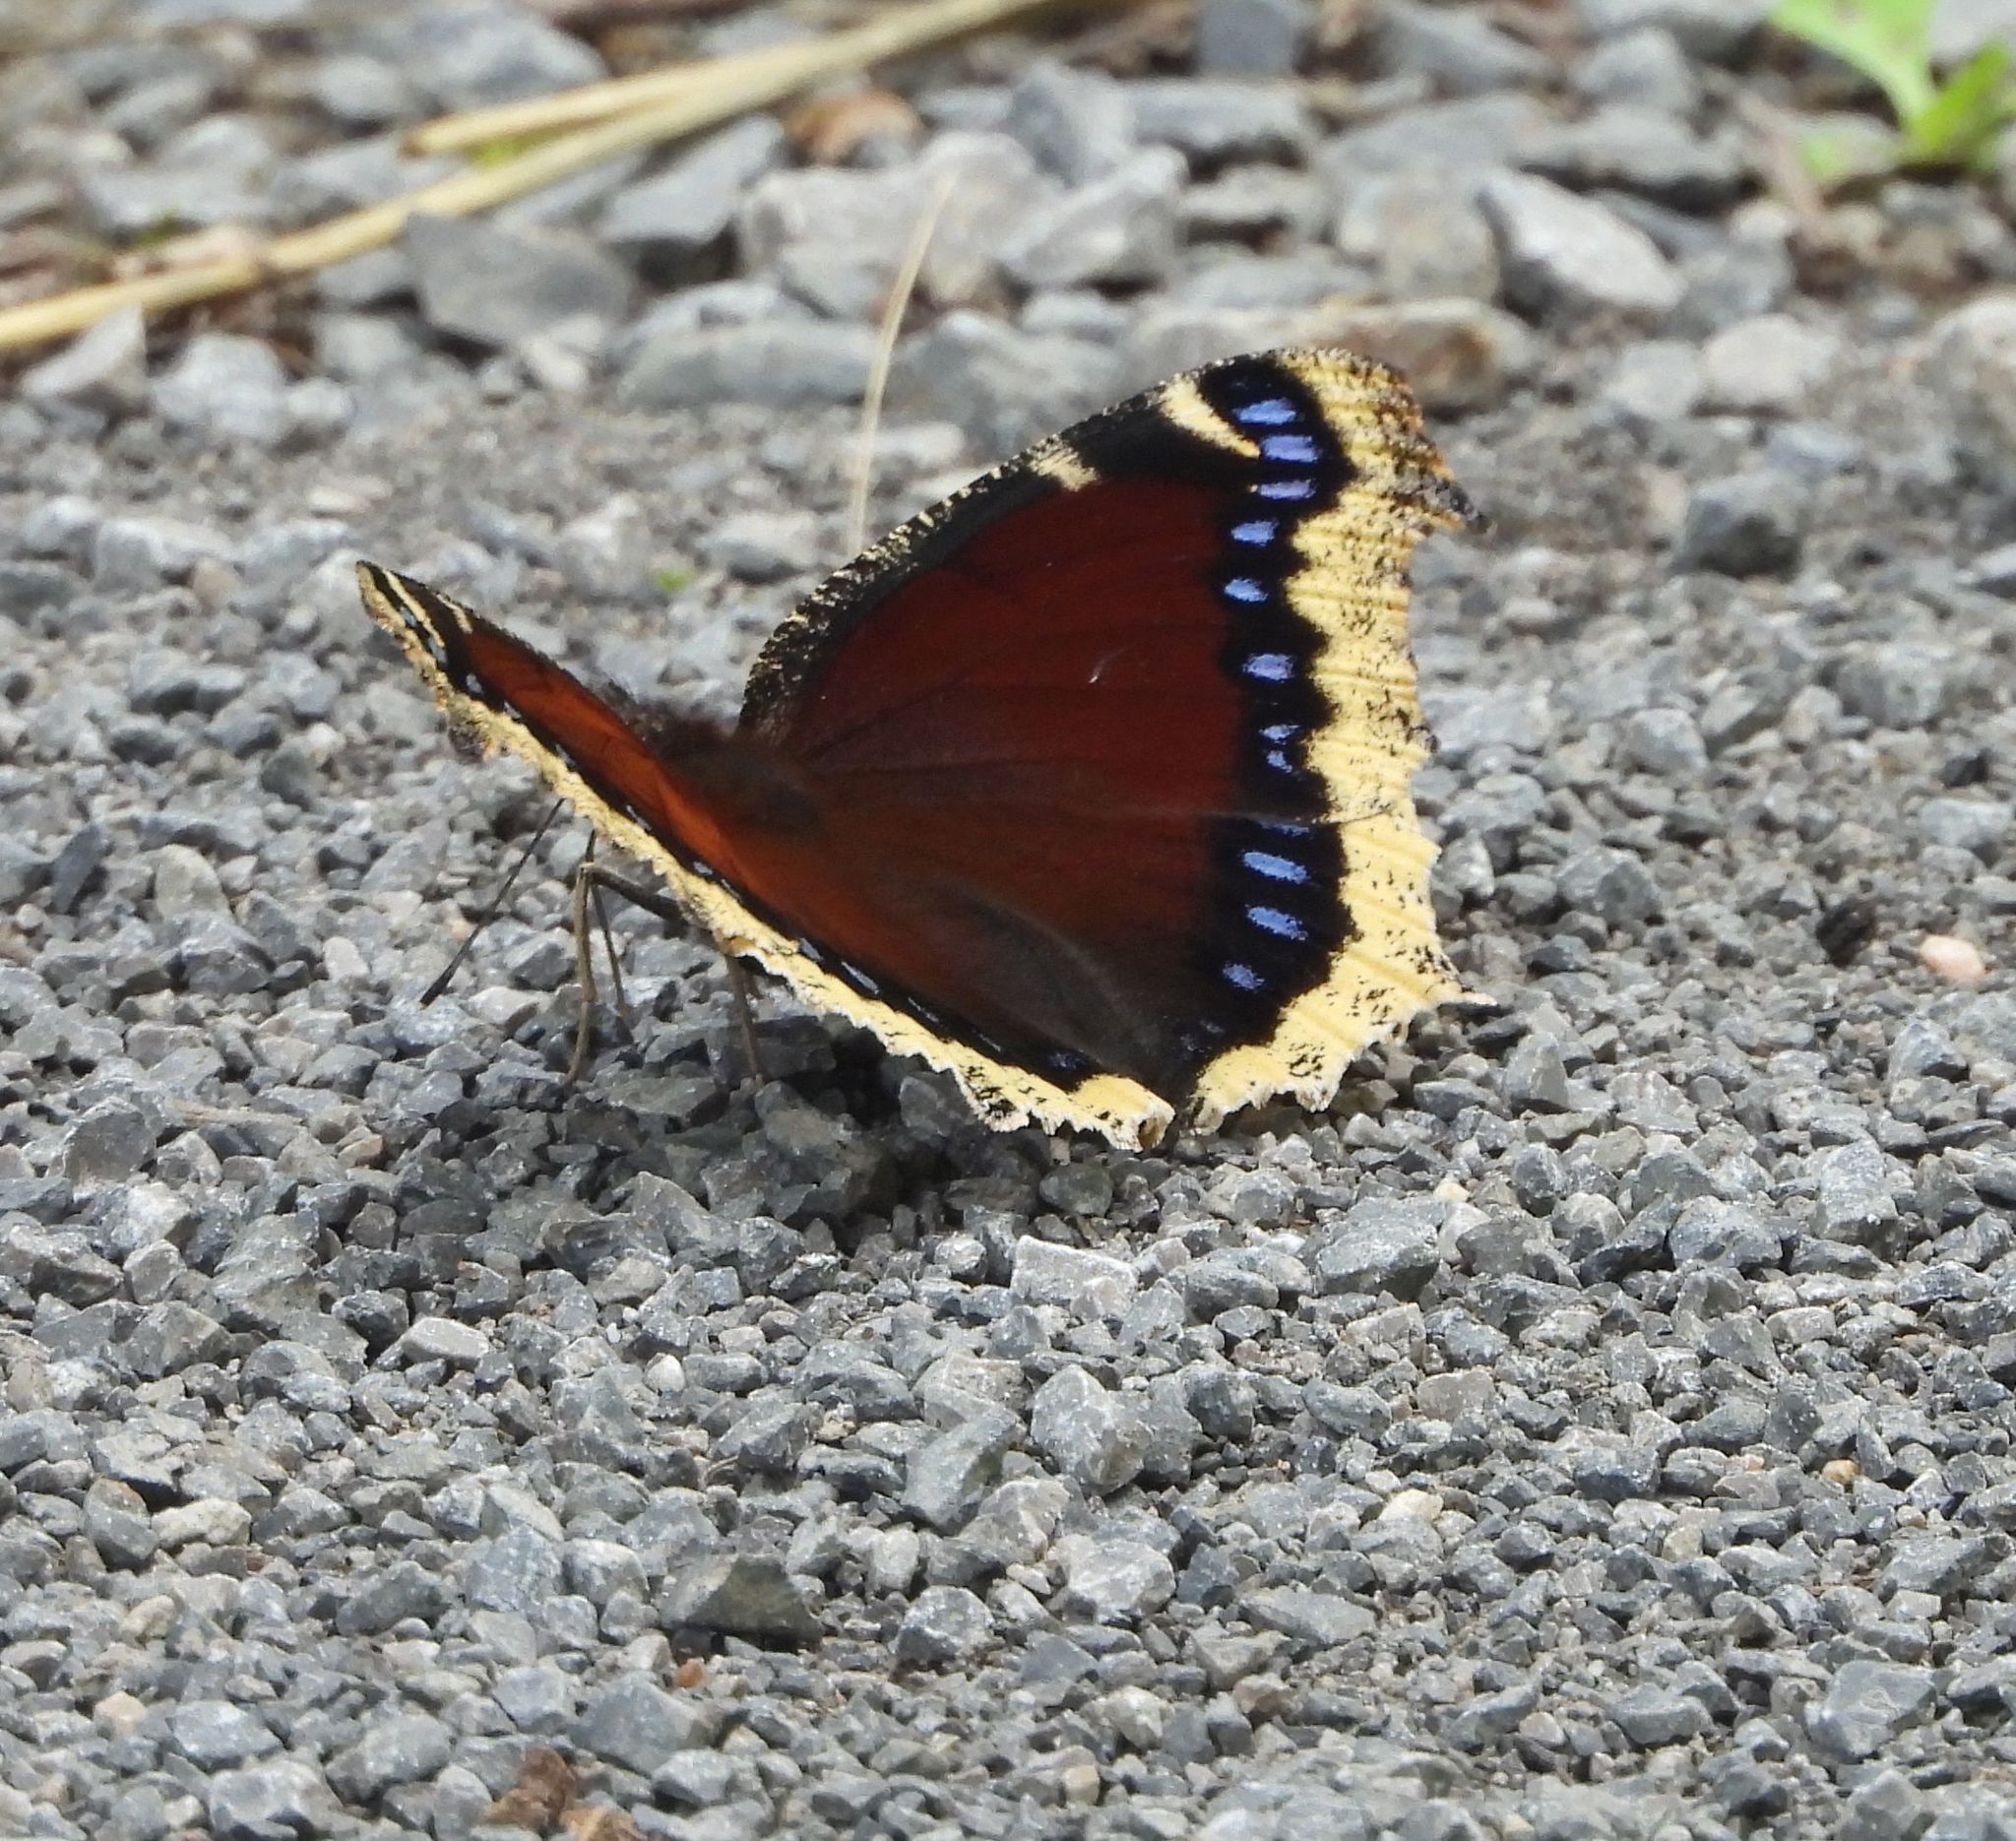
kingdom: Animalia
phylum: Arthropoda
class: Insecta
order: Lepidoptera
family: Nymphalidae
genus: Nymphalis
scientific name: Nymphalis antiopa
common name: Camberwell beauty
